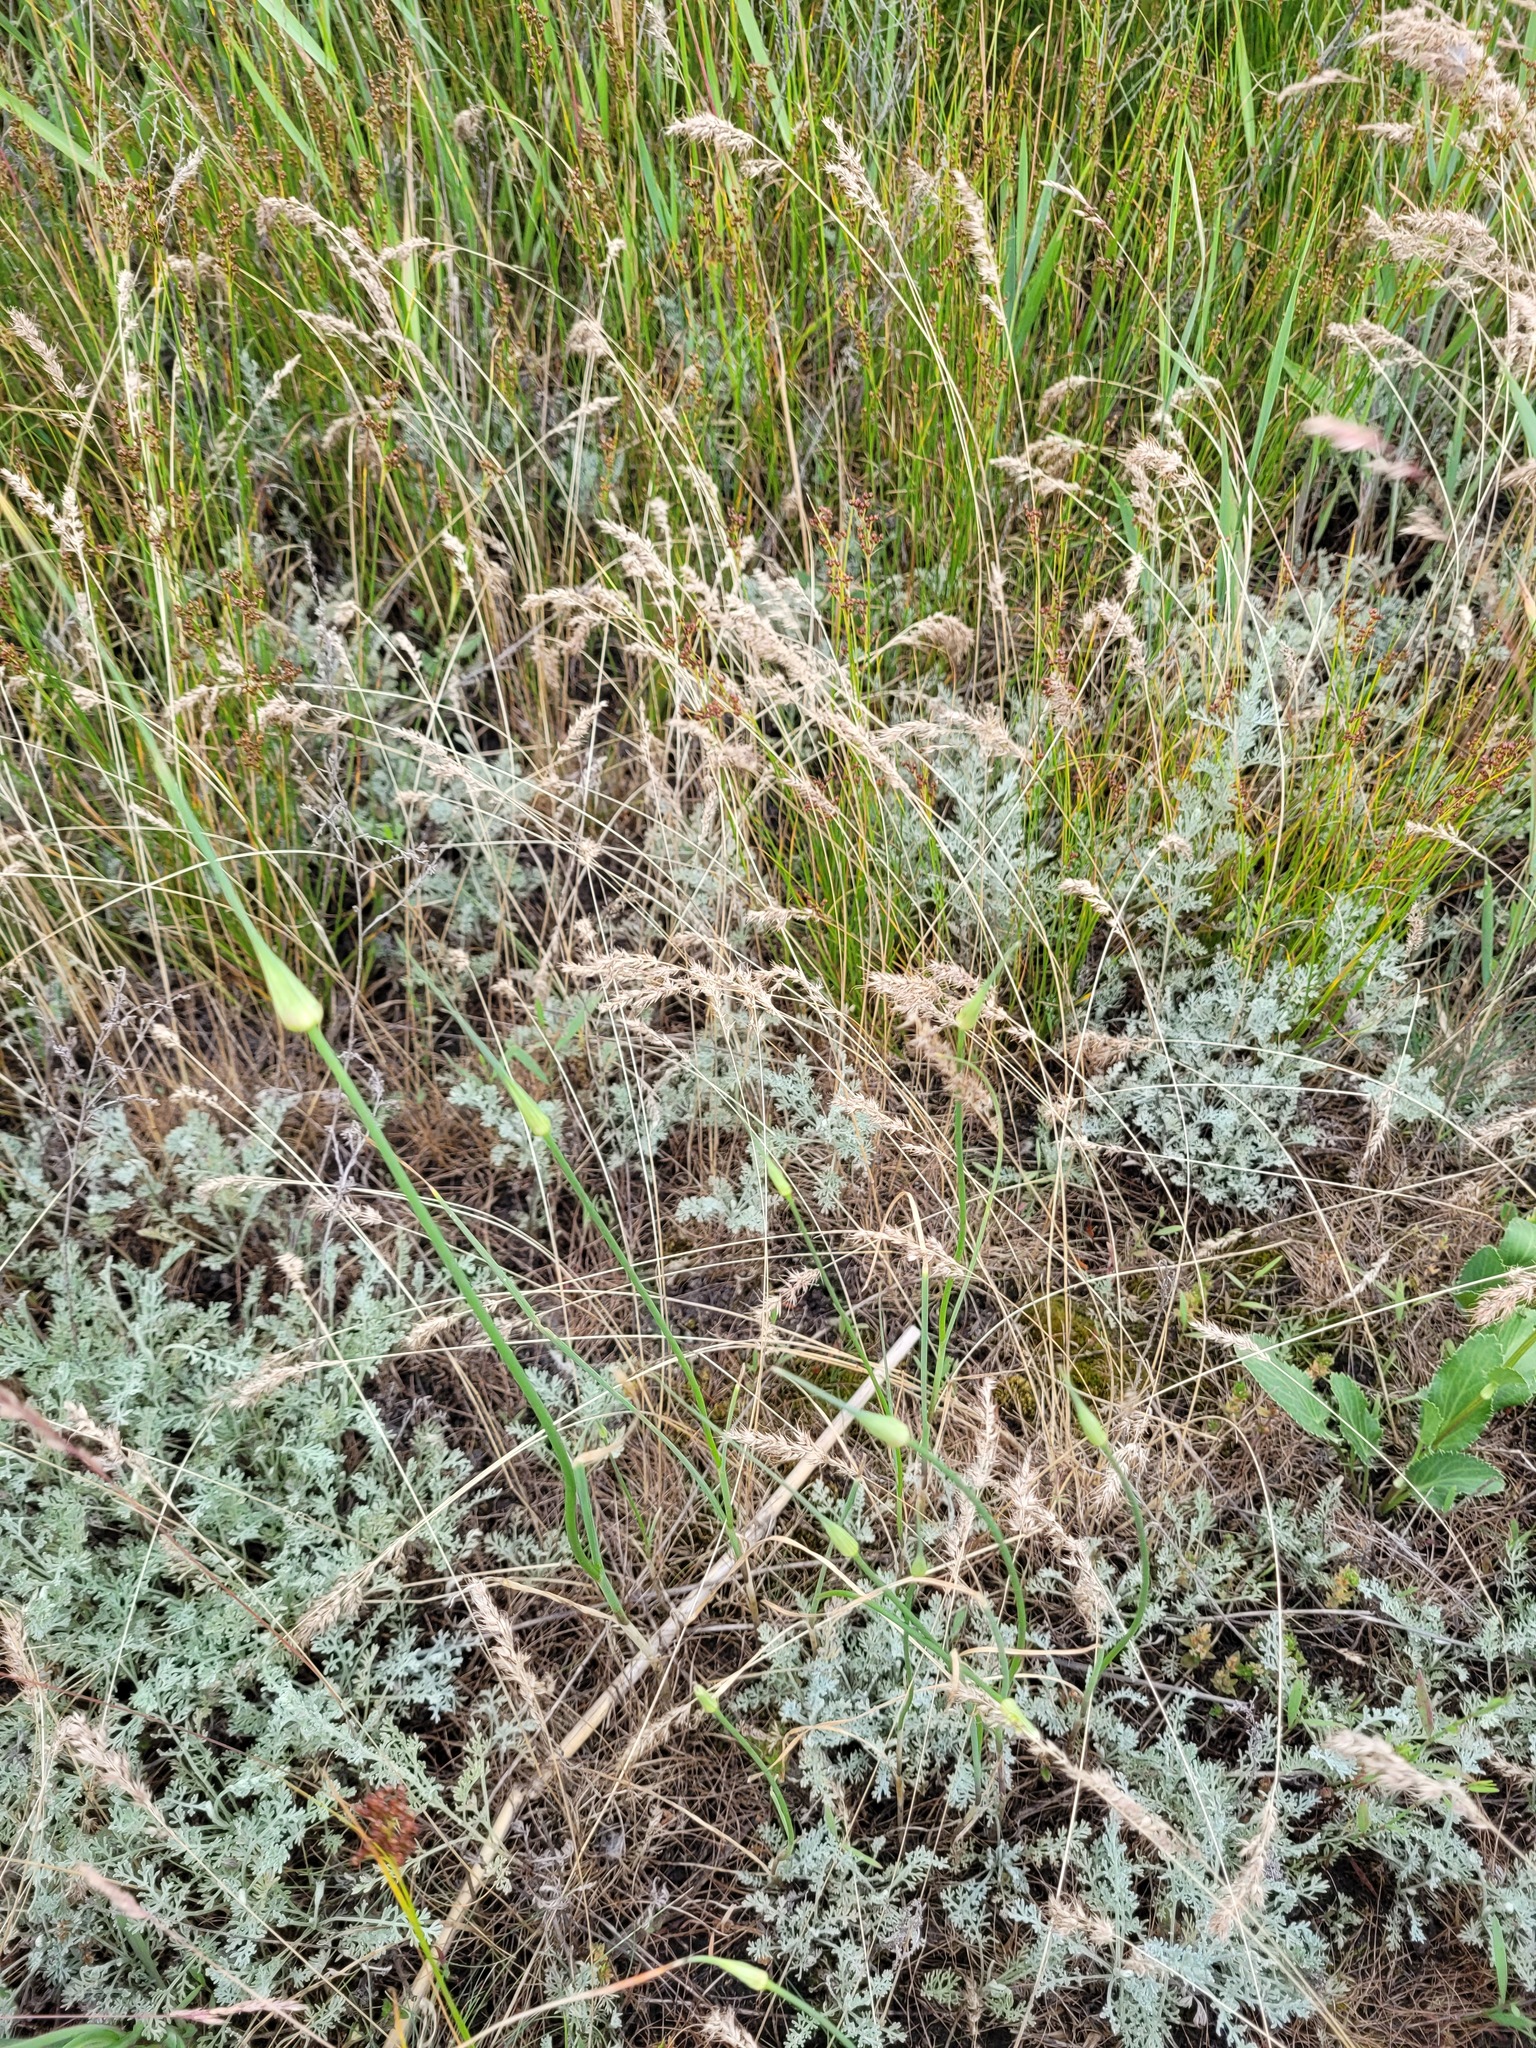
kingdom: Plantae
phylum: Tracheophyta
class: Liliopsida
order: Poales
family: Poaceae
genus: Poa
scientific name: Poa bulbosa
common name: Bulbous bluegrass
